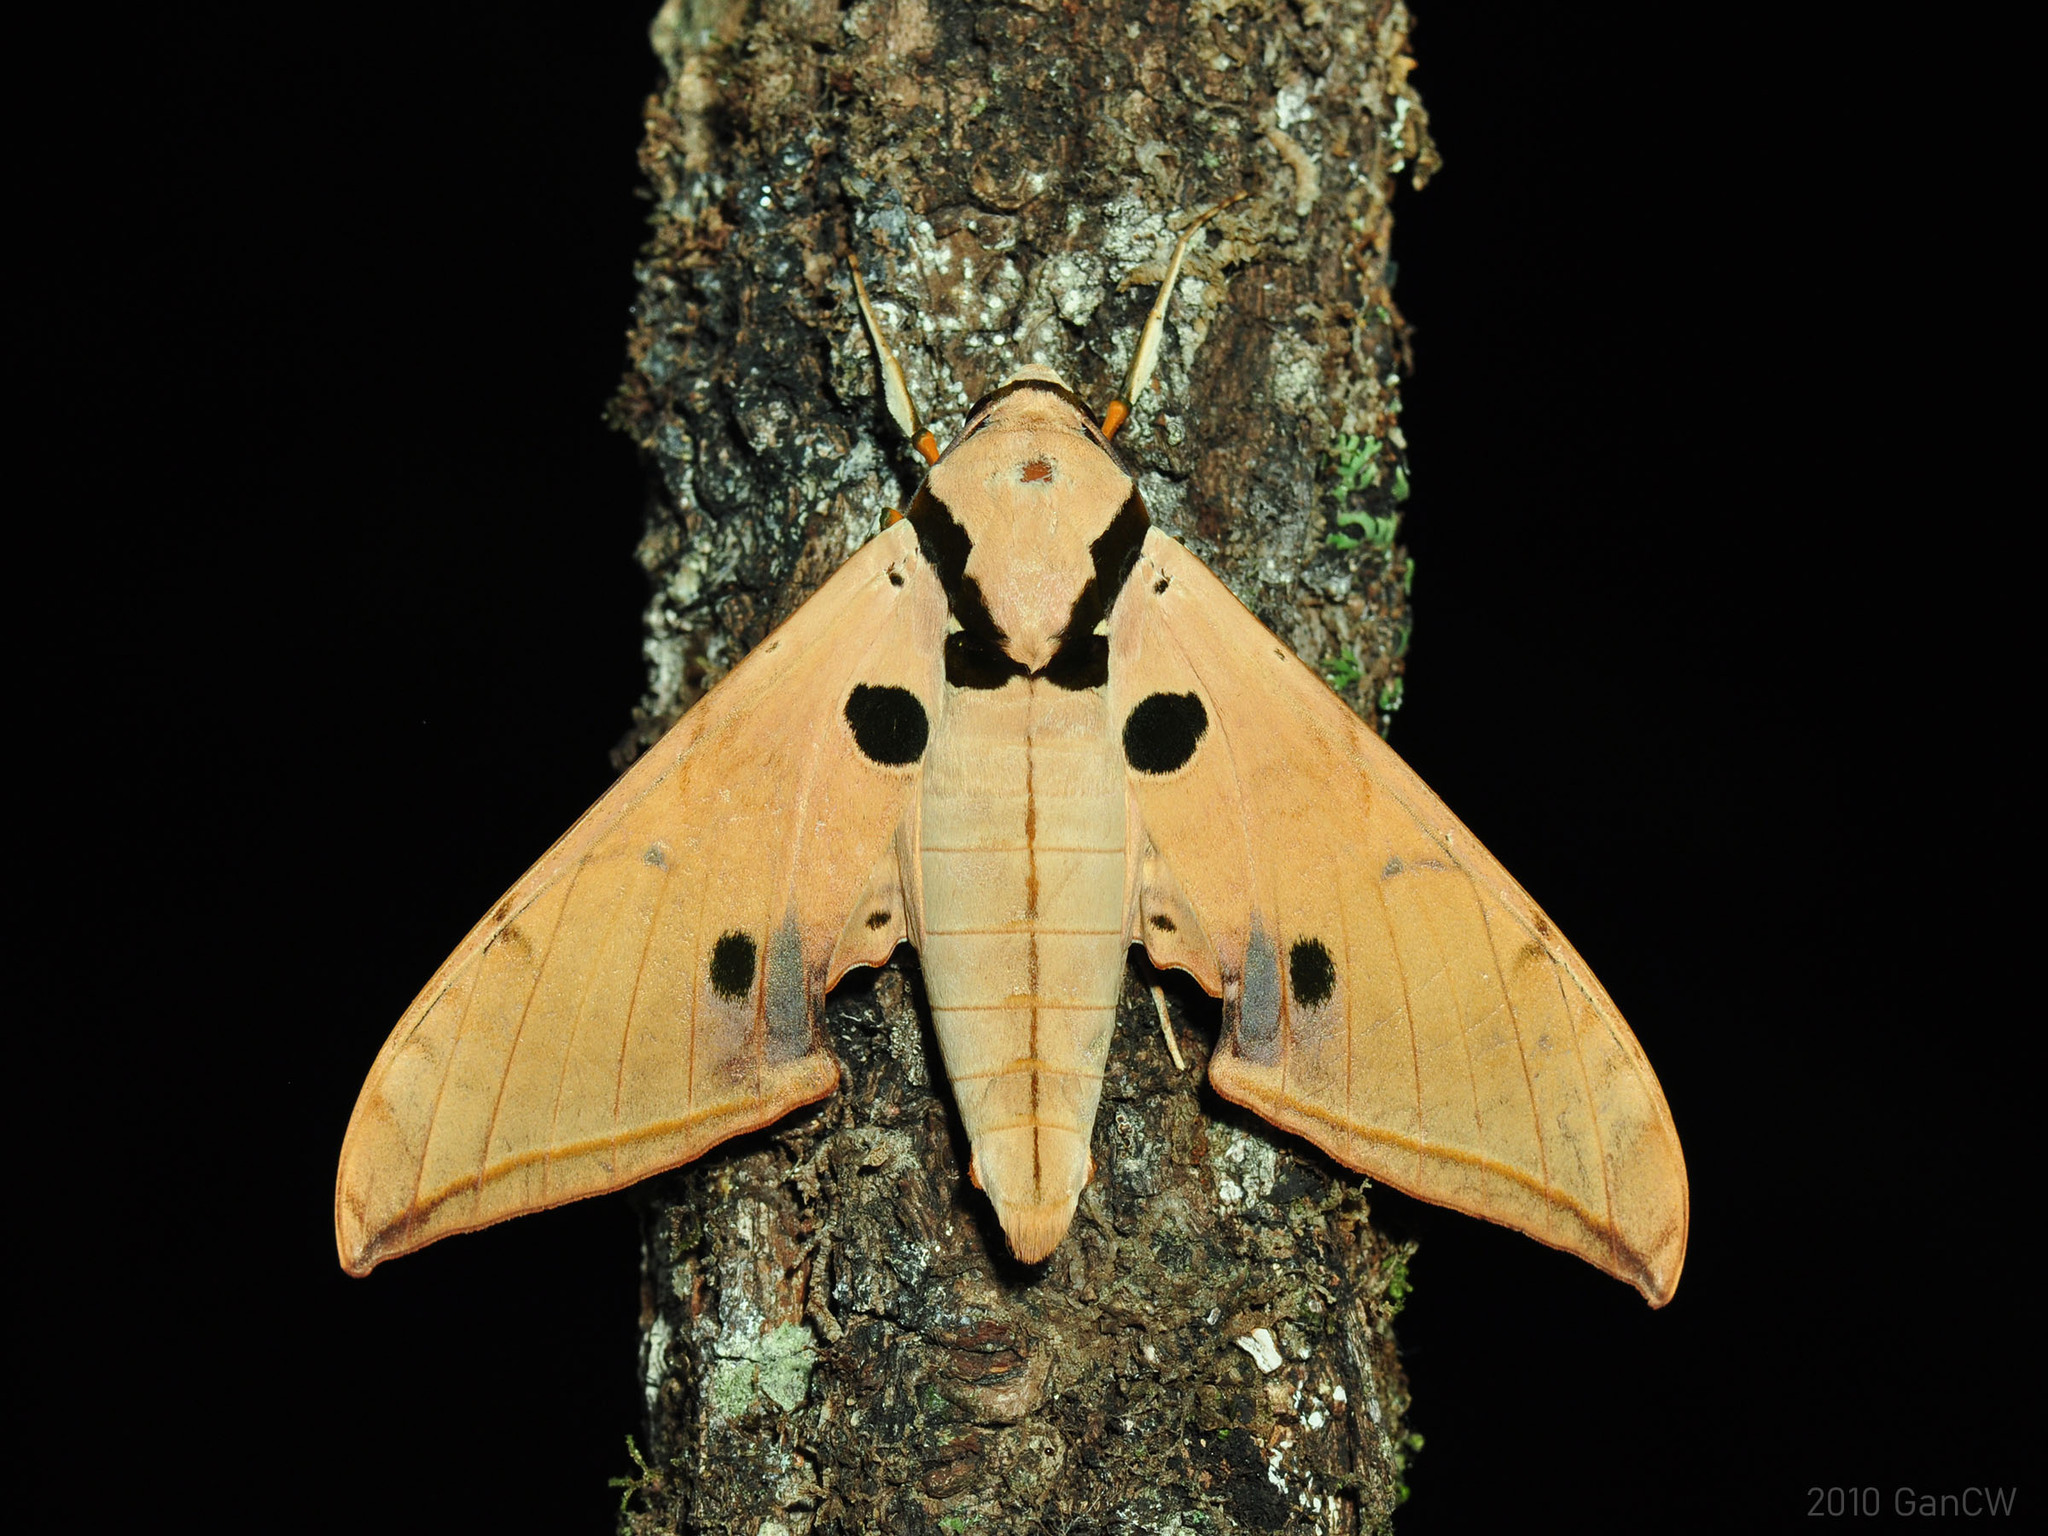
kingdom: Animalia
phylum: Arthropoda
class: Insecta
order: Lepidoptera
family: Sphingidae
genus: Ambulyx
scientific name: Ambulyx obliterata
